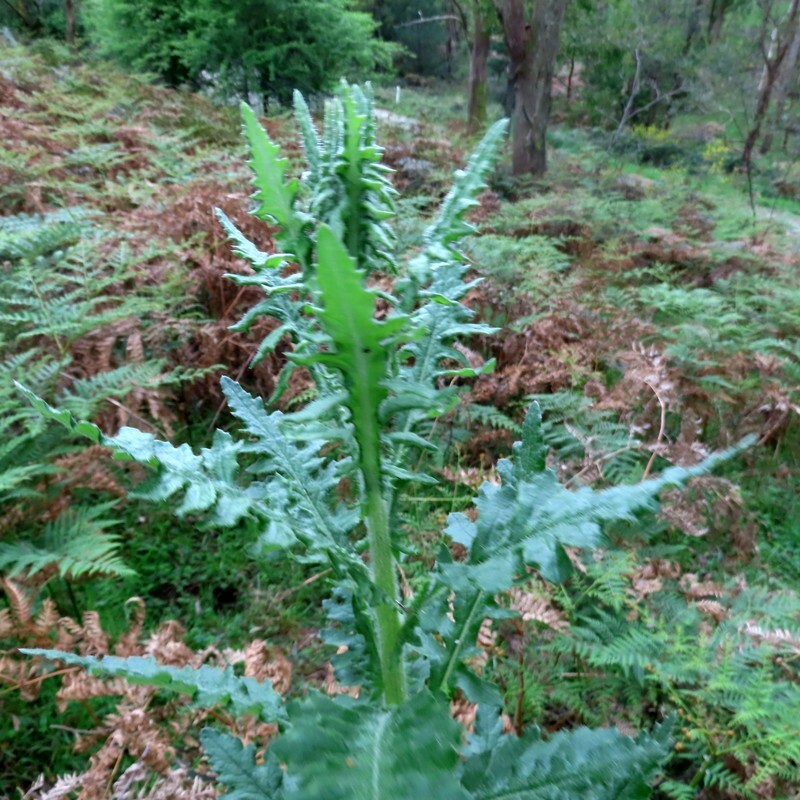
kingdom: Plantae
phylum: Tracheophyta
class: Magnoliopsida
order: Asterales
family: Asteraceae
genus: Senecio
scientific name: Senecio glomeratus
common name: Cutleaf burnweed
